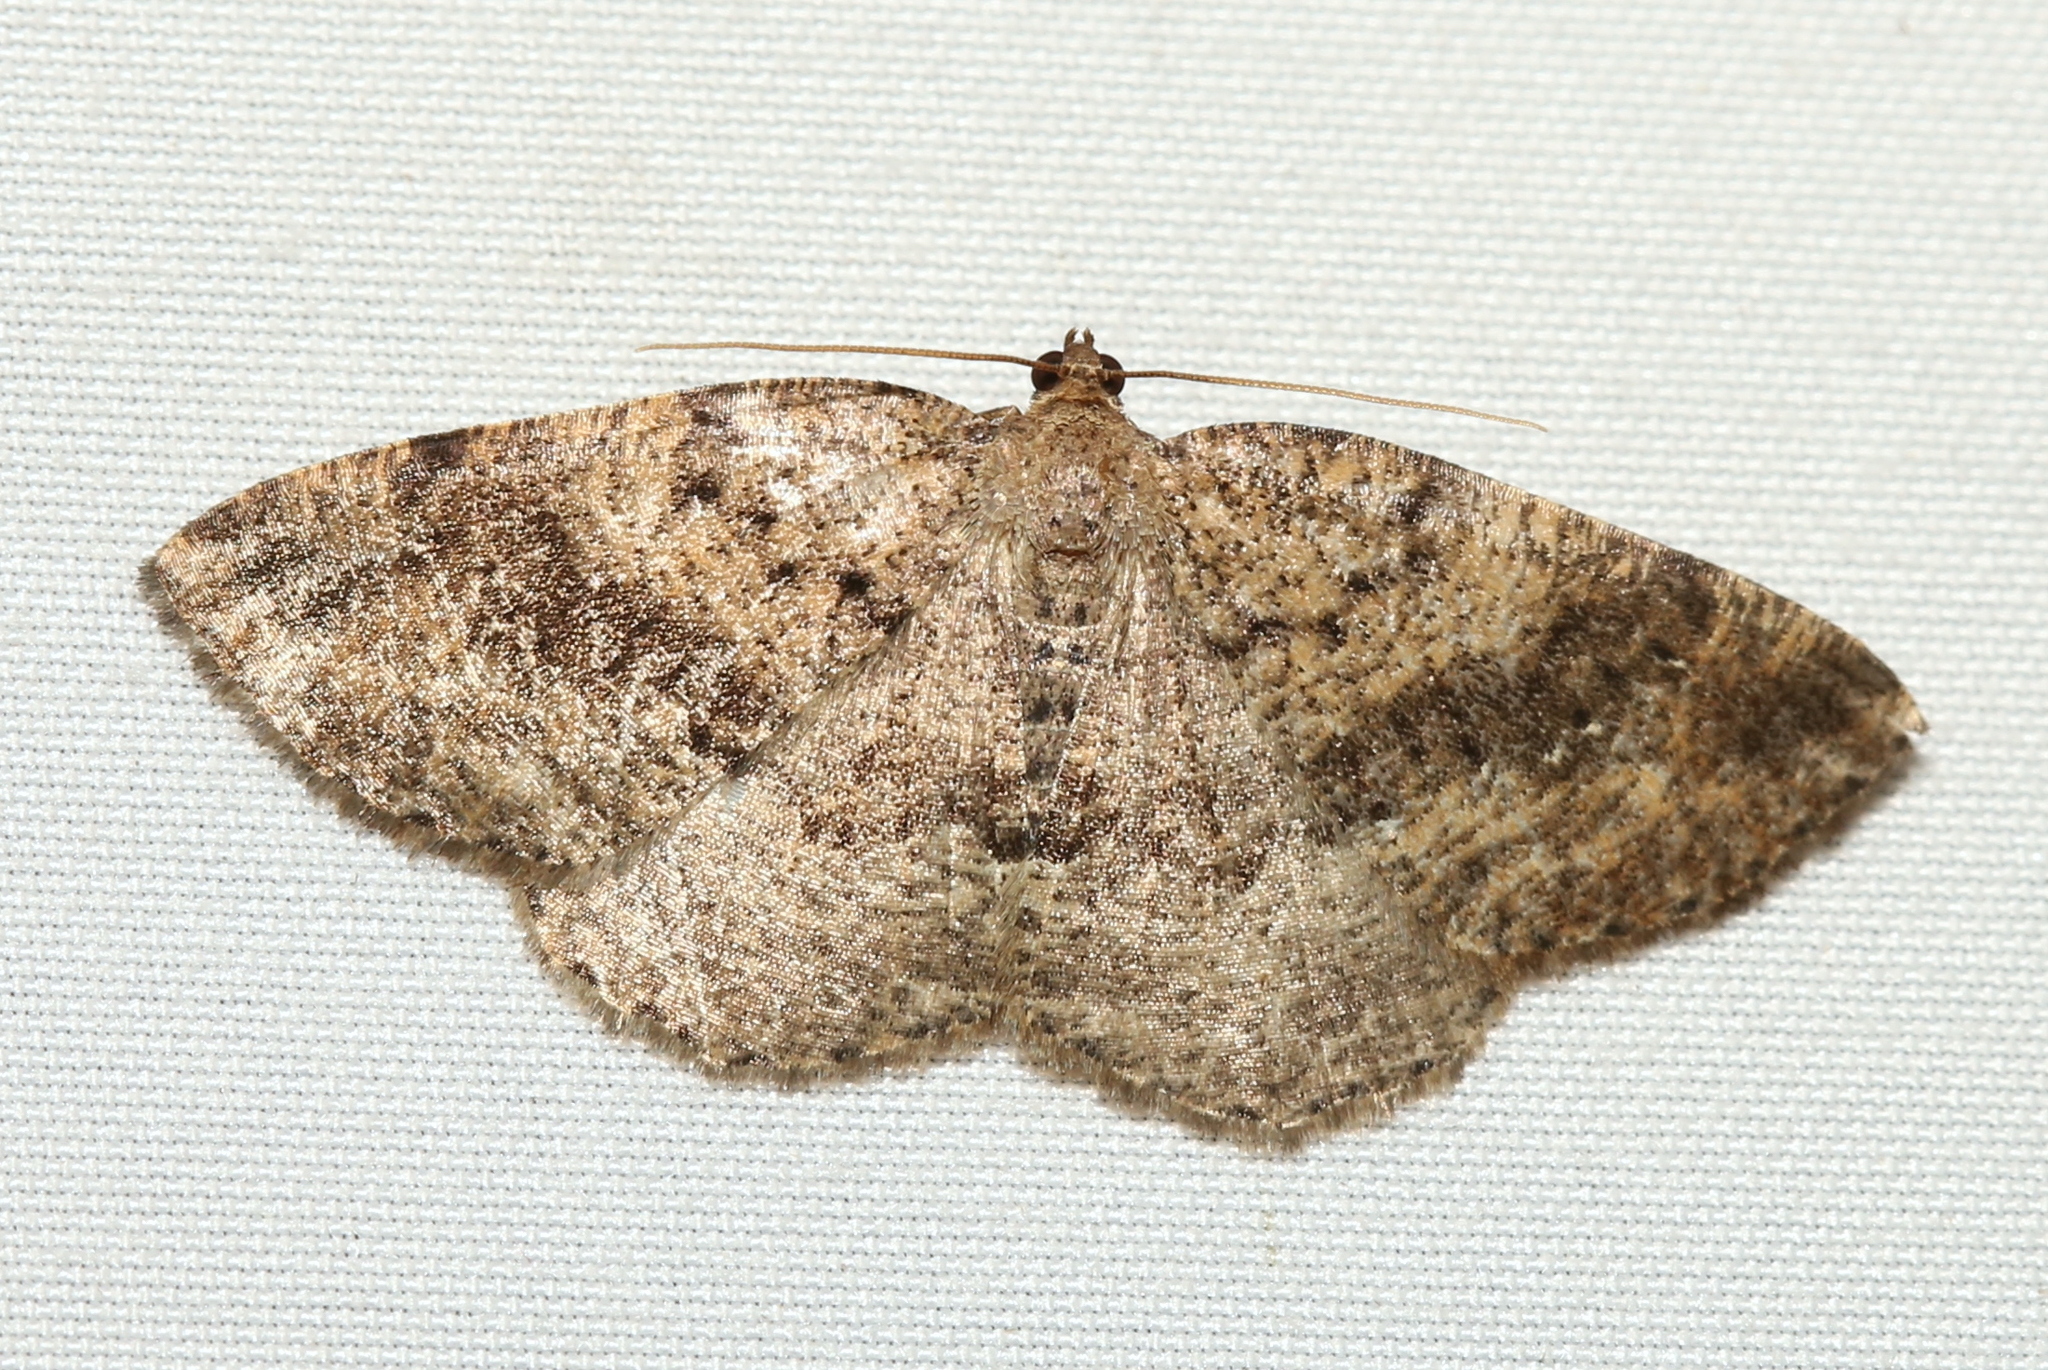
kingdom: Animalia
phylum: Arthropoda
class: Insecta
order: Lepidoptera
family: Geometridae
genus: Homochlodes
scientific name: Homochlodes fritillaria
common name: Pale homochlodes
